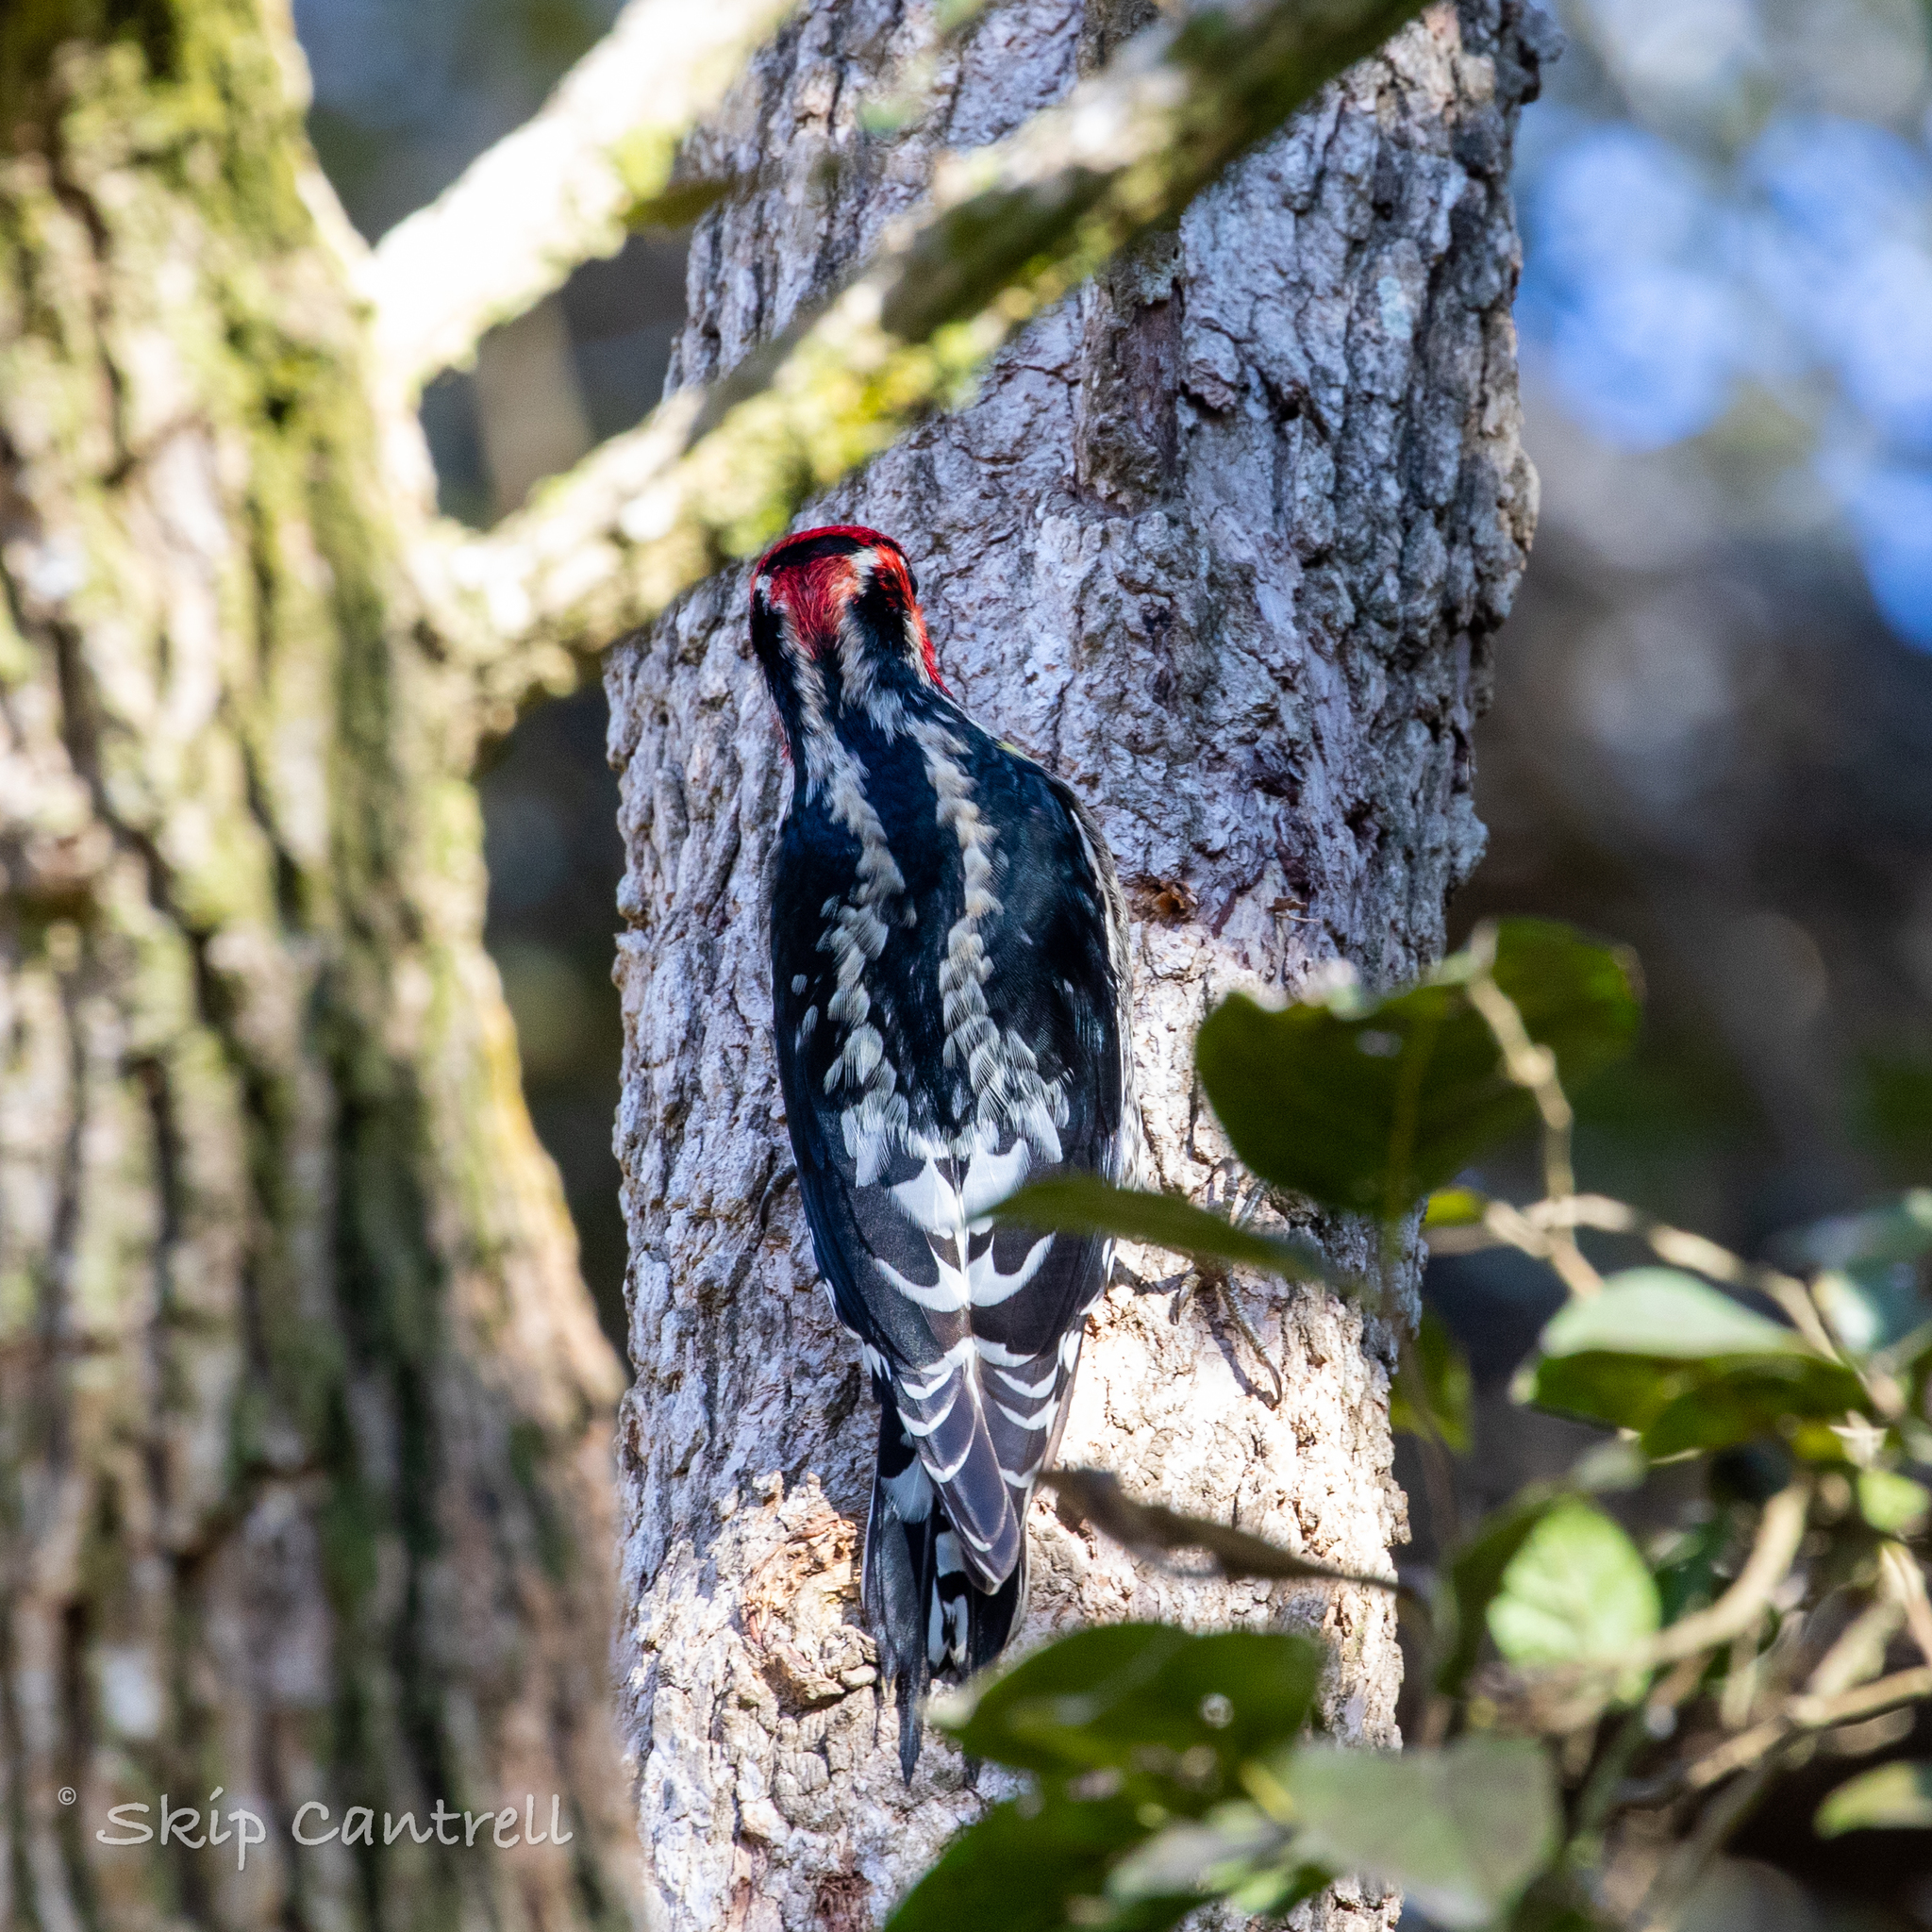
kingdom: Animalia
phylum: Chordata
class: Aves
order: Piciformes
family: Picidae
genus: Sphyrapicus
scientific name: Sphyrapicus nuchalis
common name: Red-naped sapsucker
